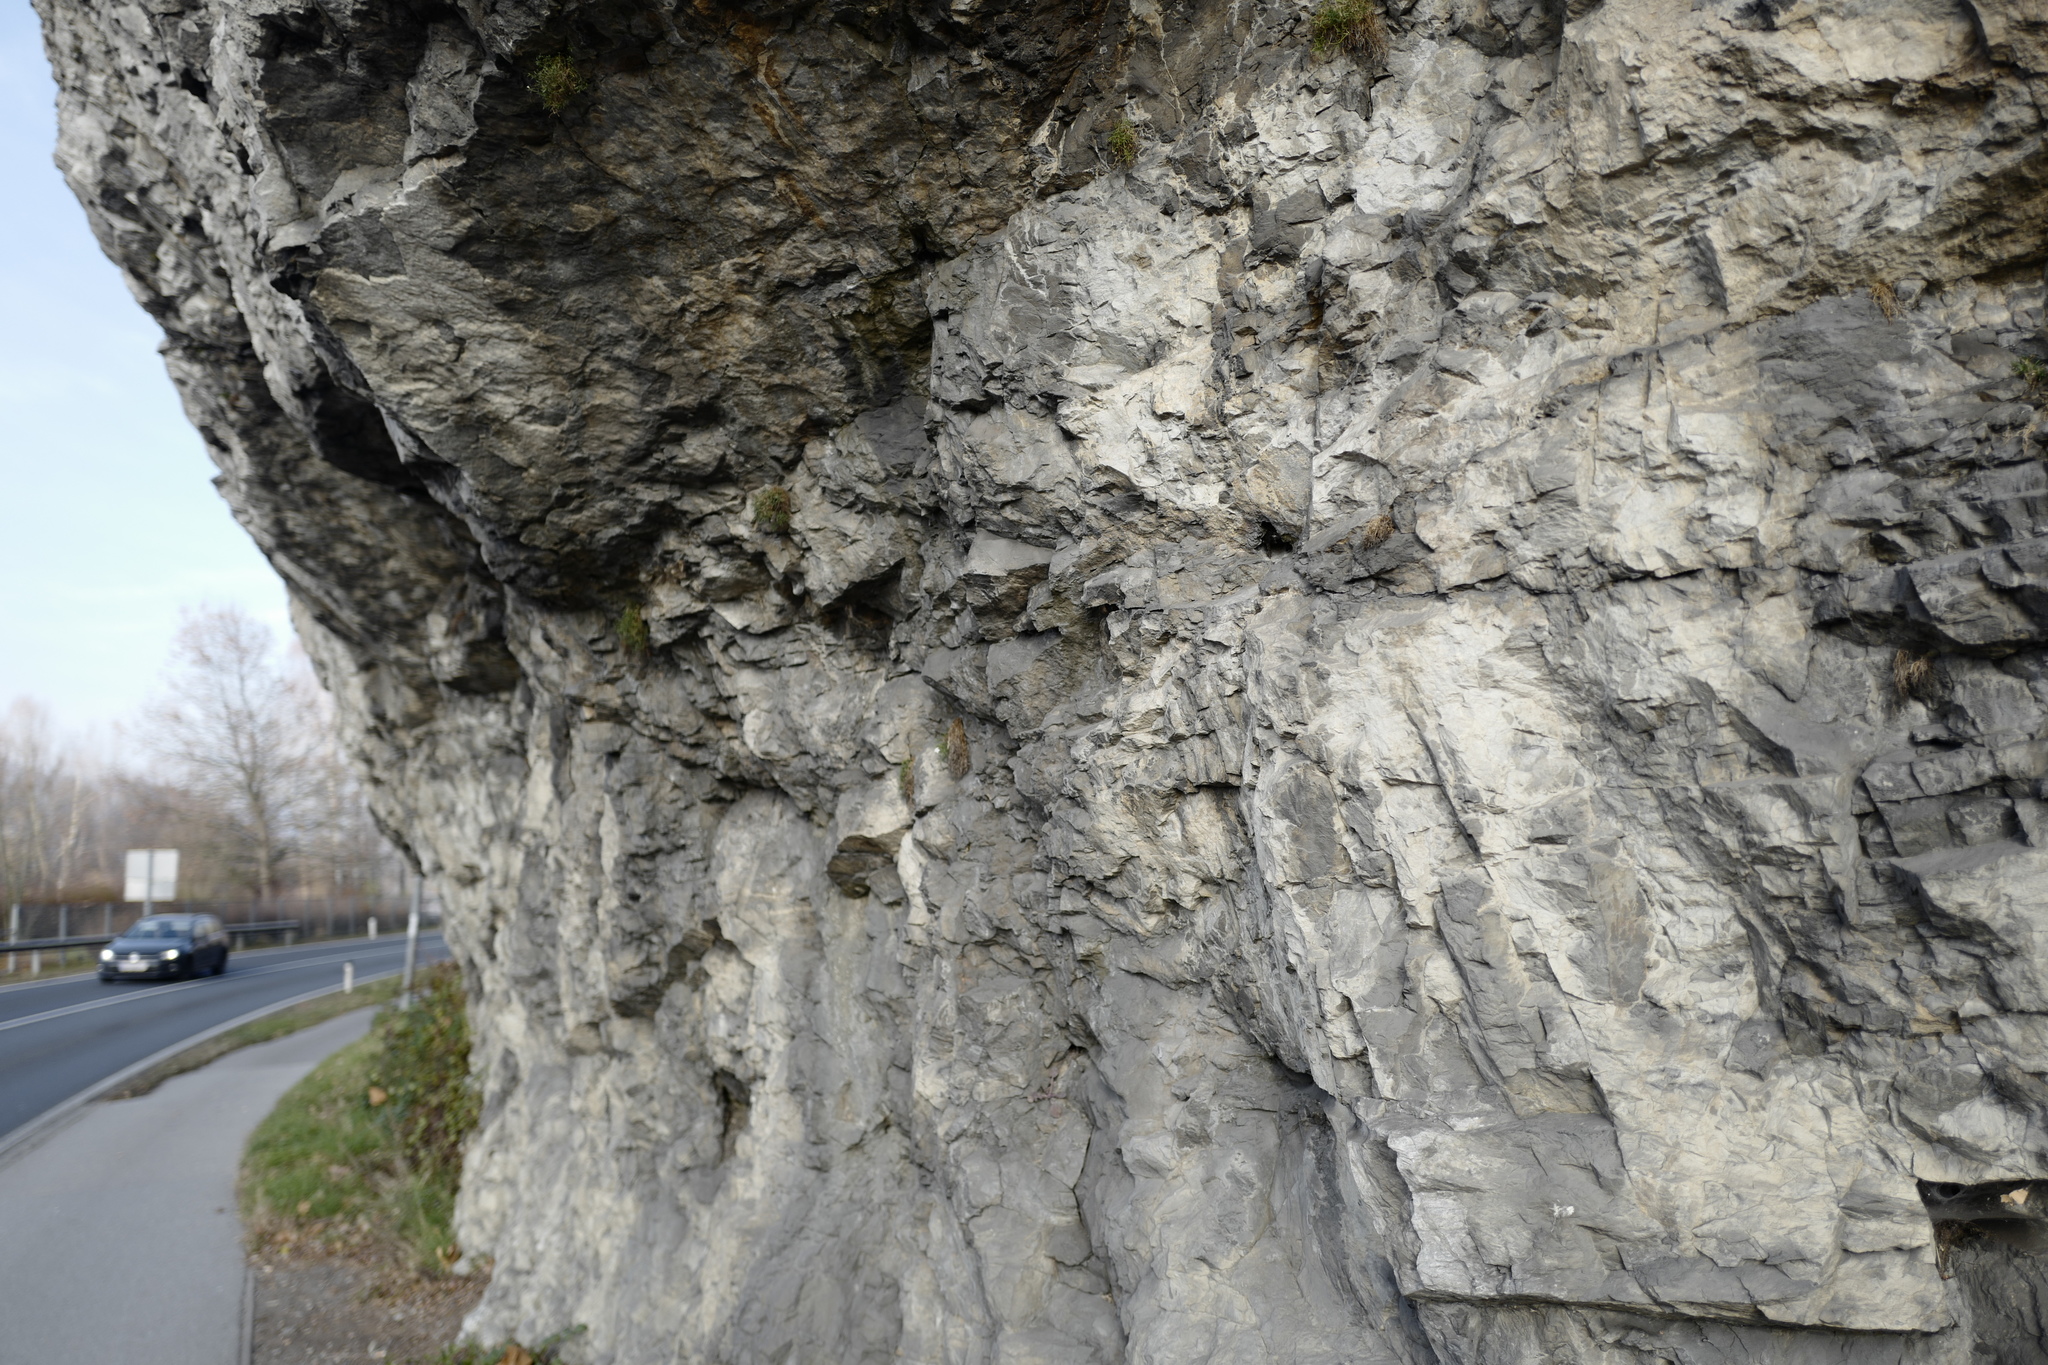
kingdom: Plantae
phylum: Tracheophyta
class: Magnoliopsida
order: Caryophyllales
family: Caryophyllaceae
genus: Moehringia
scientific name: Moehringia bavarica
